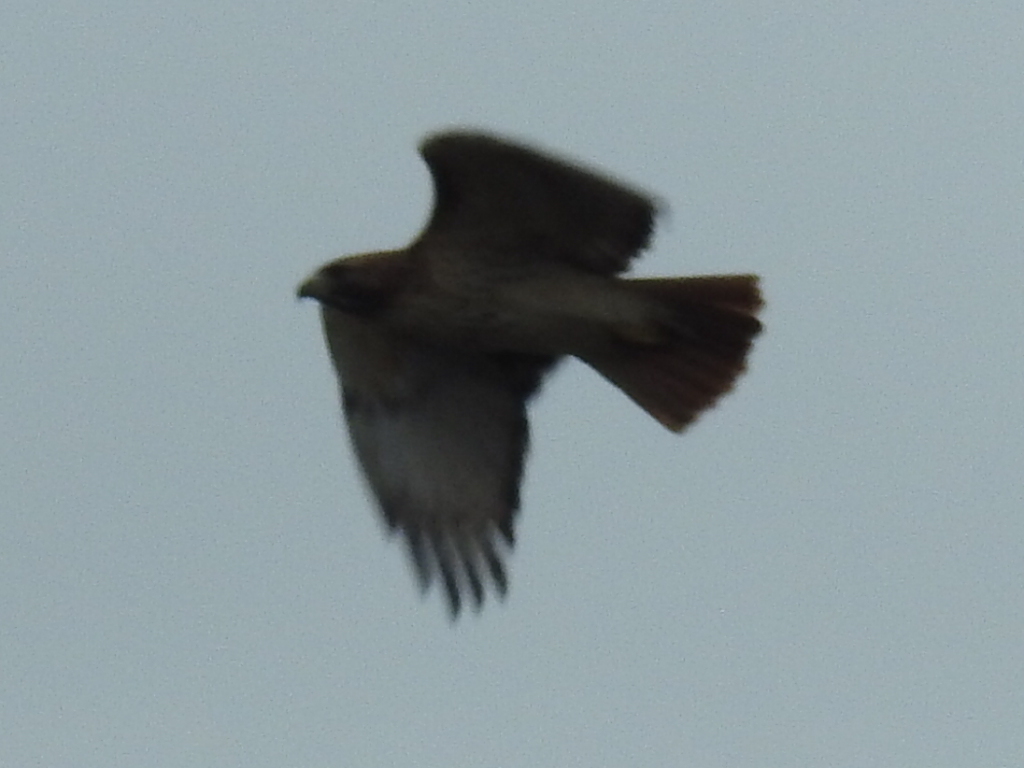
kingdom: Animalia
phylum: Chordata
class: Aves
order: Accipitriformes
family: Accipitridae
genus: Buteo
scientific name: Buteo jamaicensis
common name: Red-tailed hawk
